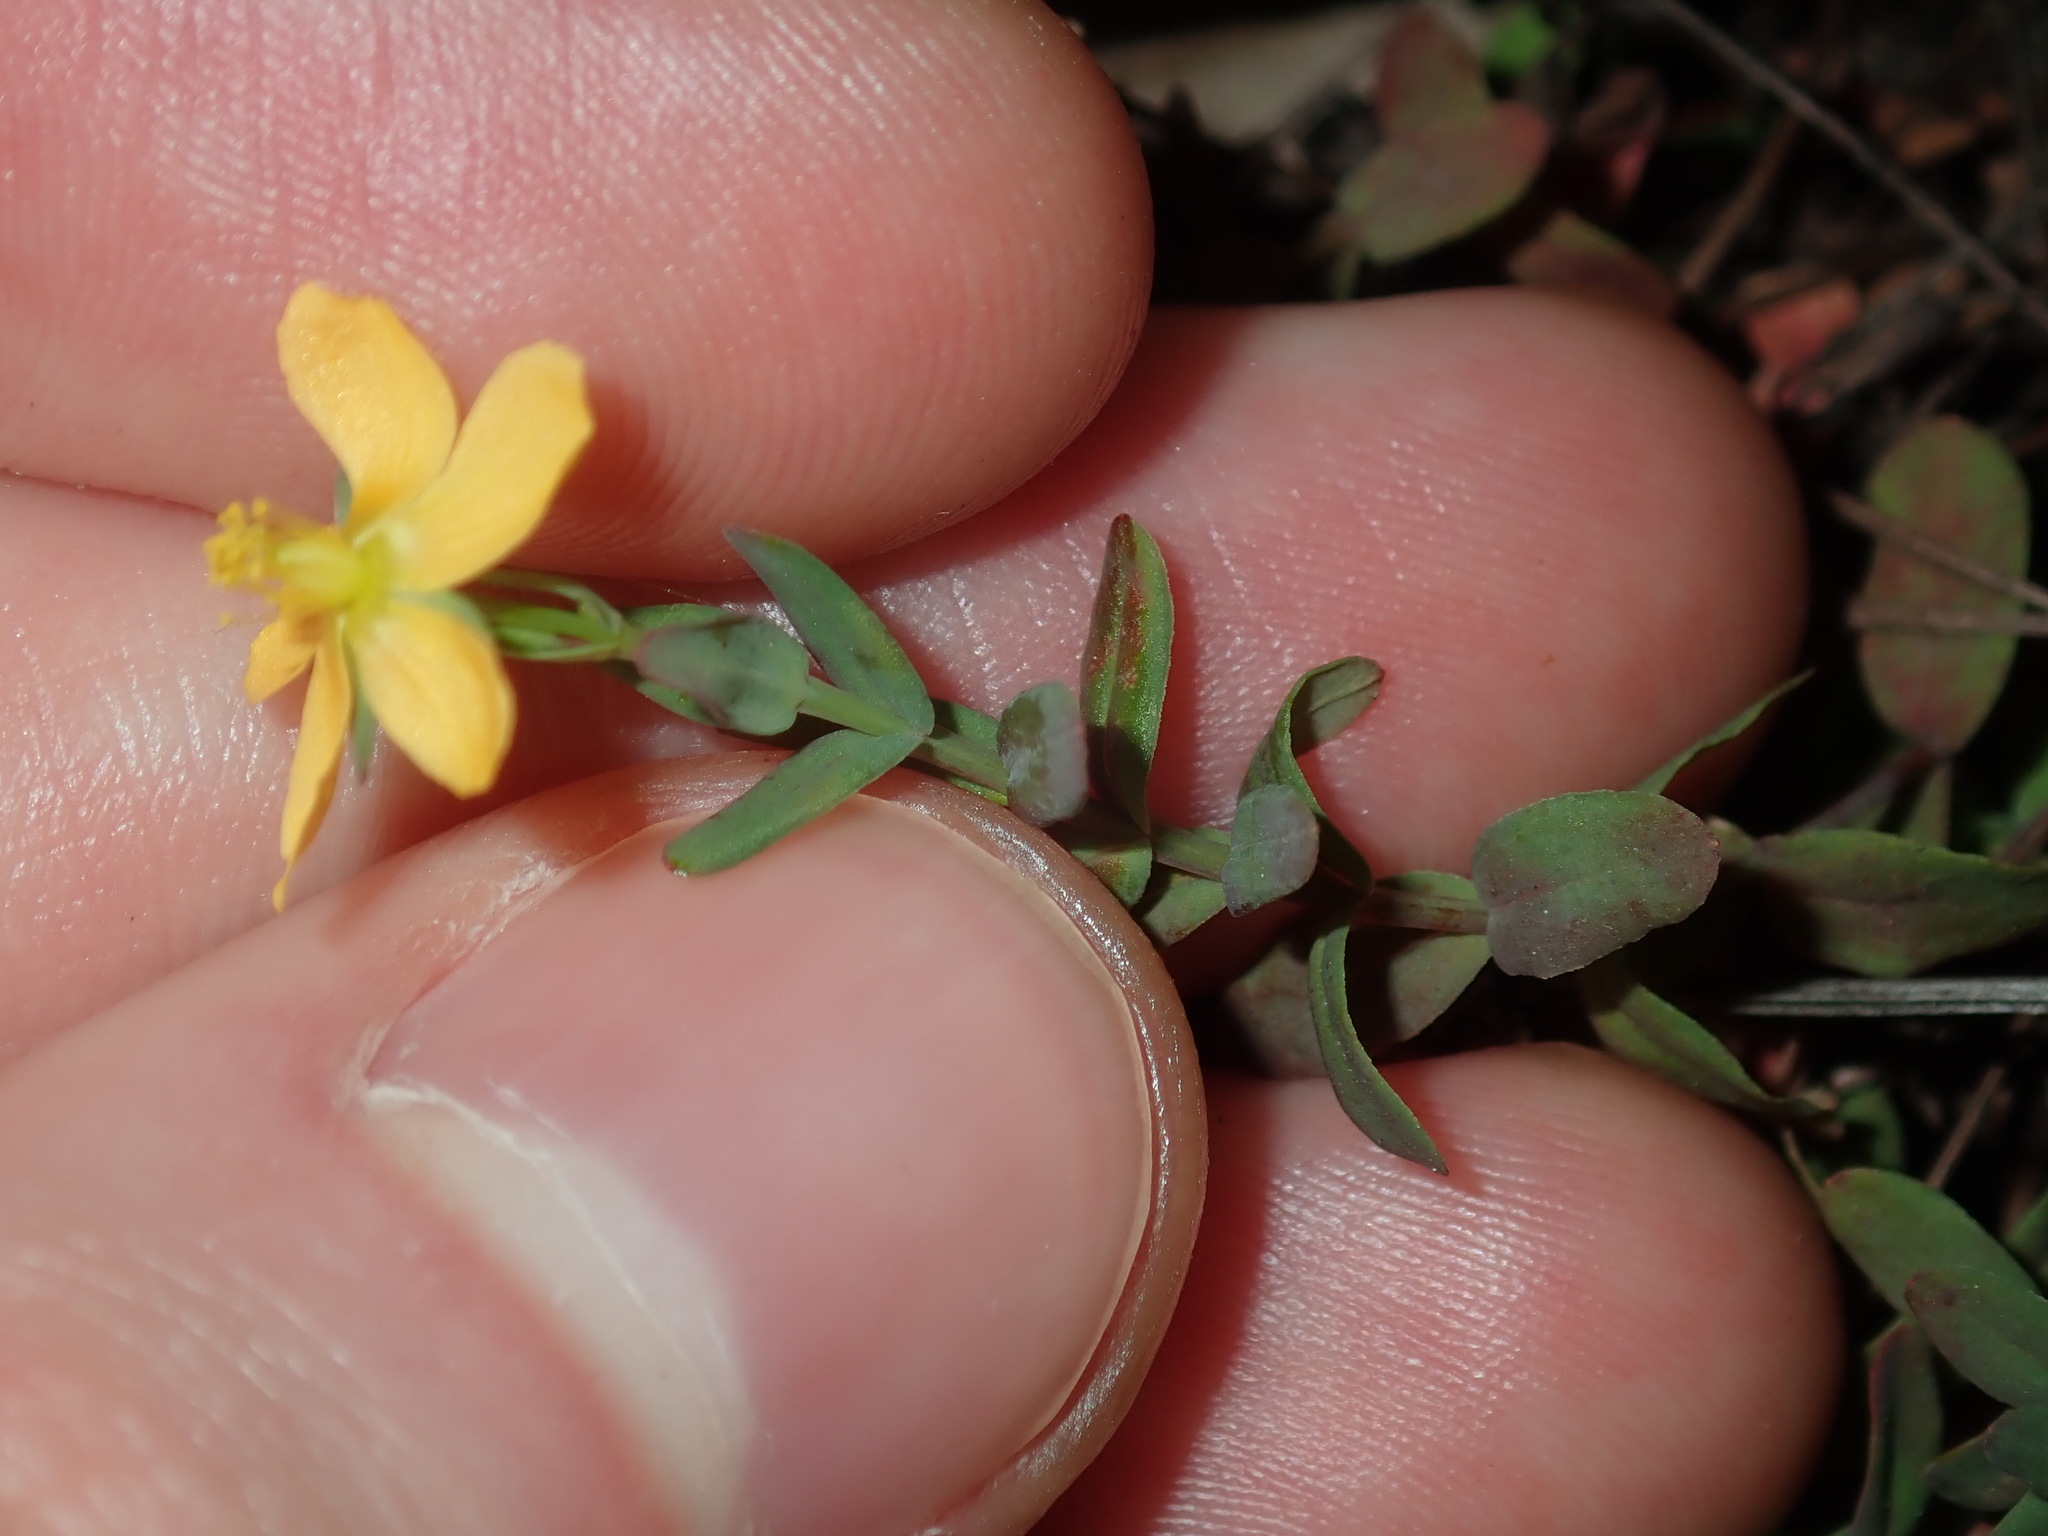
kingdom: Plantae
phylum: Tracheophyta
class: Magnoliopsida
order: Malpighiales
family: Hypericaceae
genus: Hypericum
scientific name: Hypericum gramineum
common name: Grassy st. johnswort
